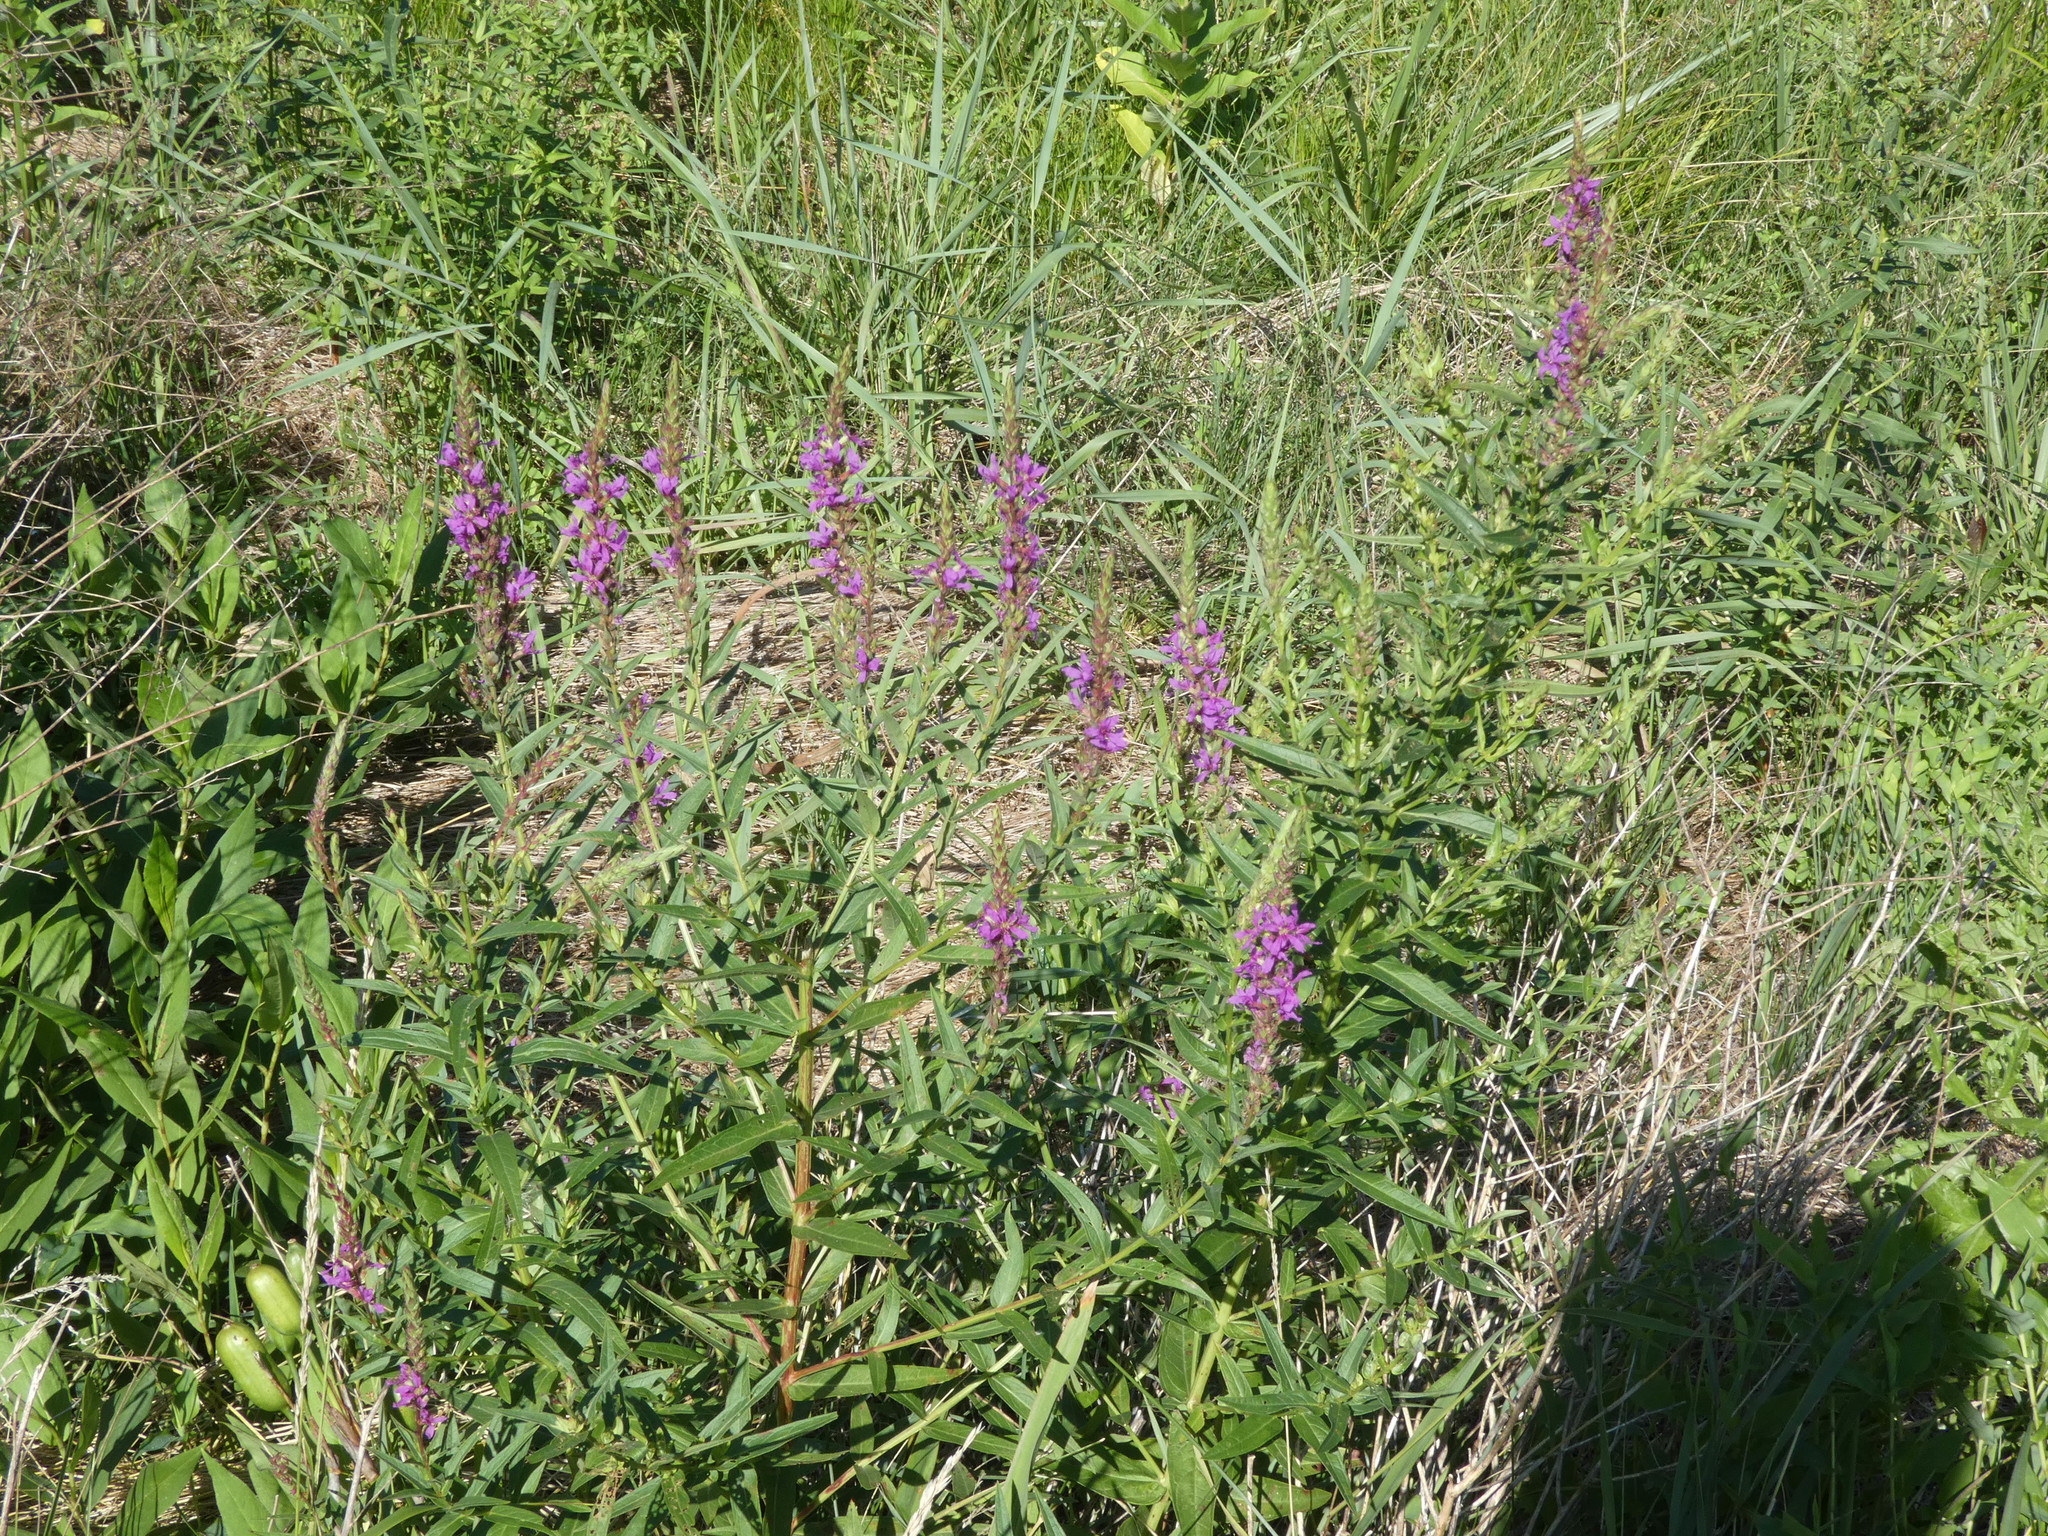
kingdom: Plantae
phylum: Tracheophyta
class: Magnoliopsida
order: Myrtales
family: Lythraceae
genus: Lythrum
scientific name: Lythrum salicaria
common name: Purple loosestrife
